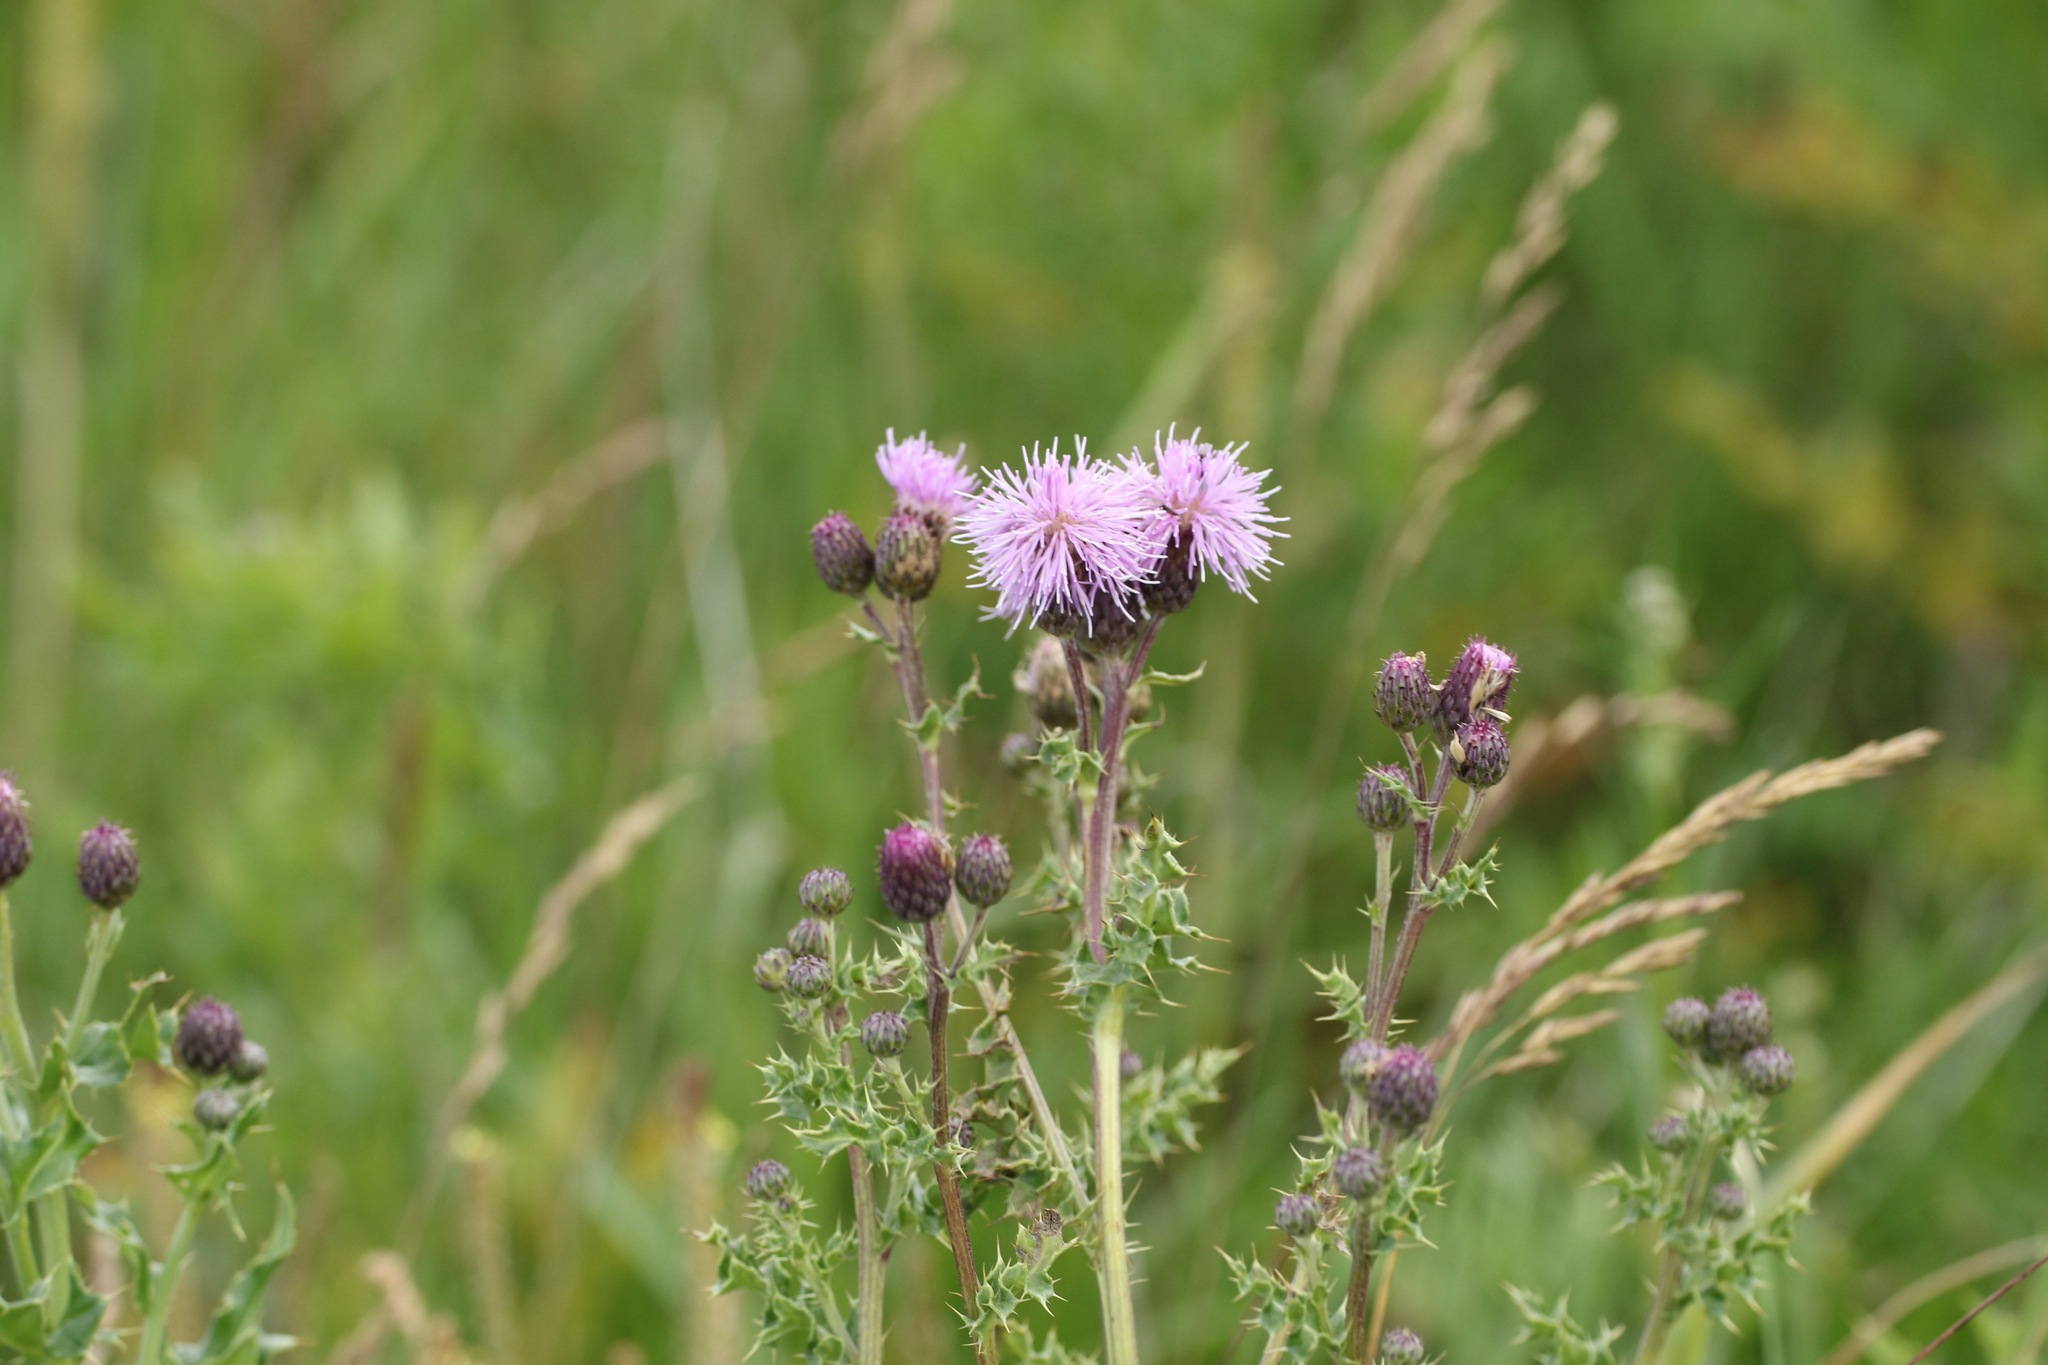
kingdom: Plantae
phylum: Tracheophyta
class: Magnoliopsida
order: Asterales
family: Asteraceae
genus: Cirsium
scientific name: Cirsium arvense
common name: Creeping thistle
